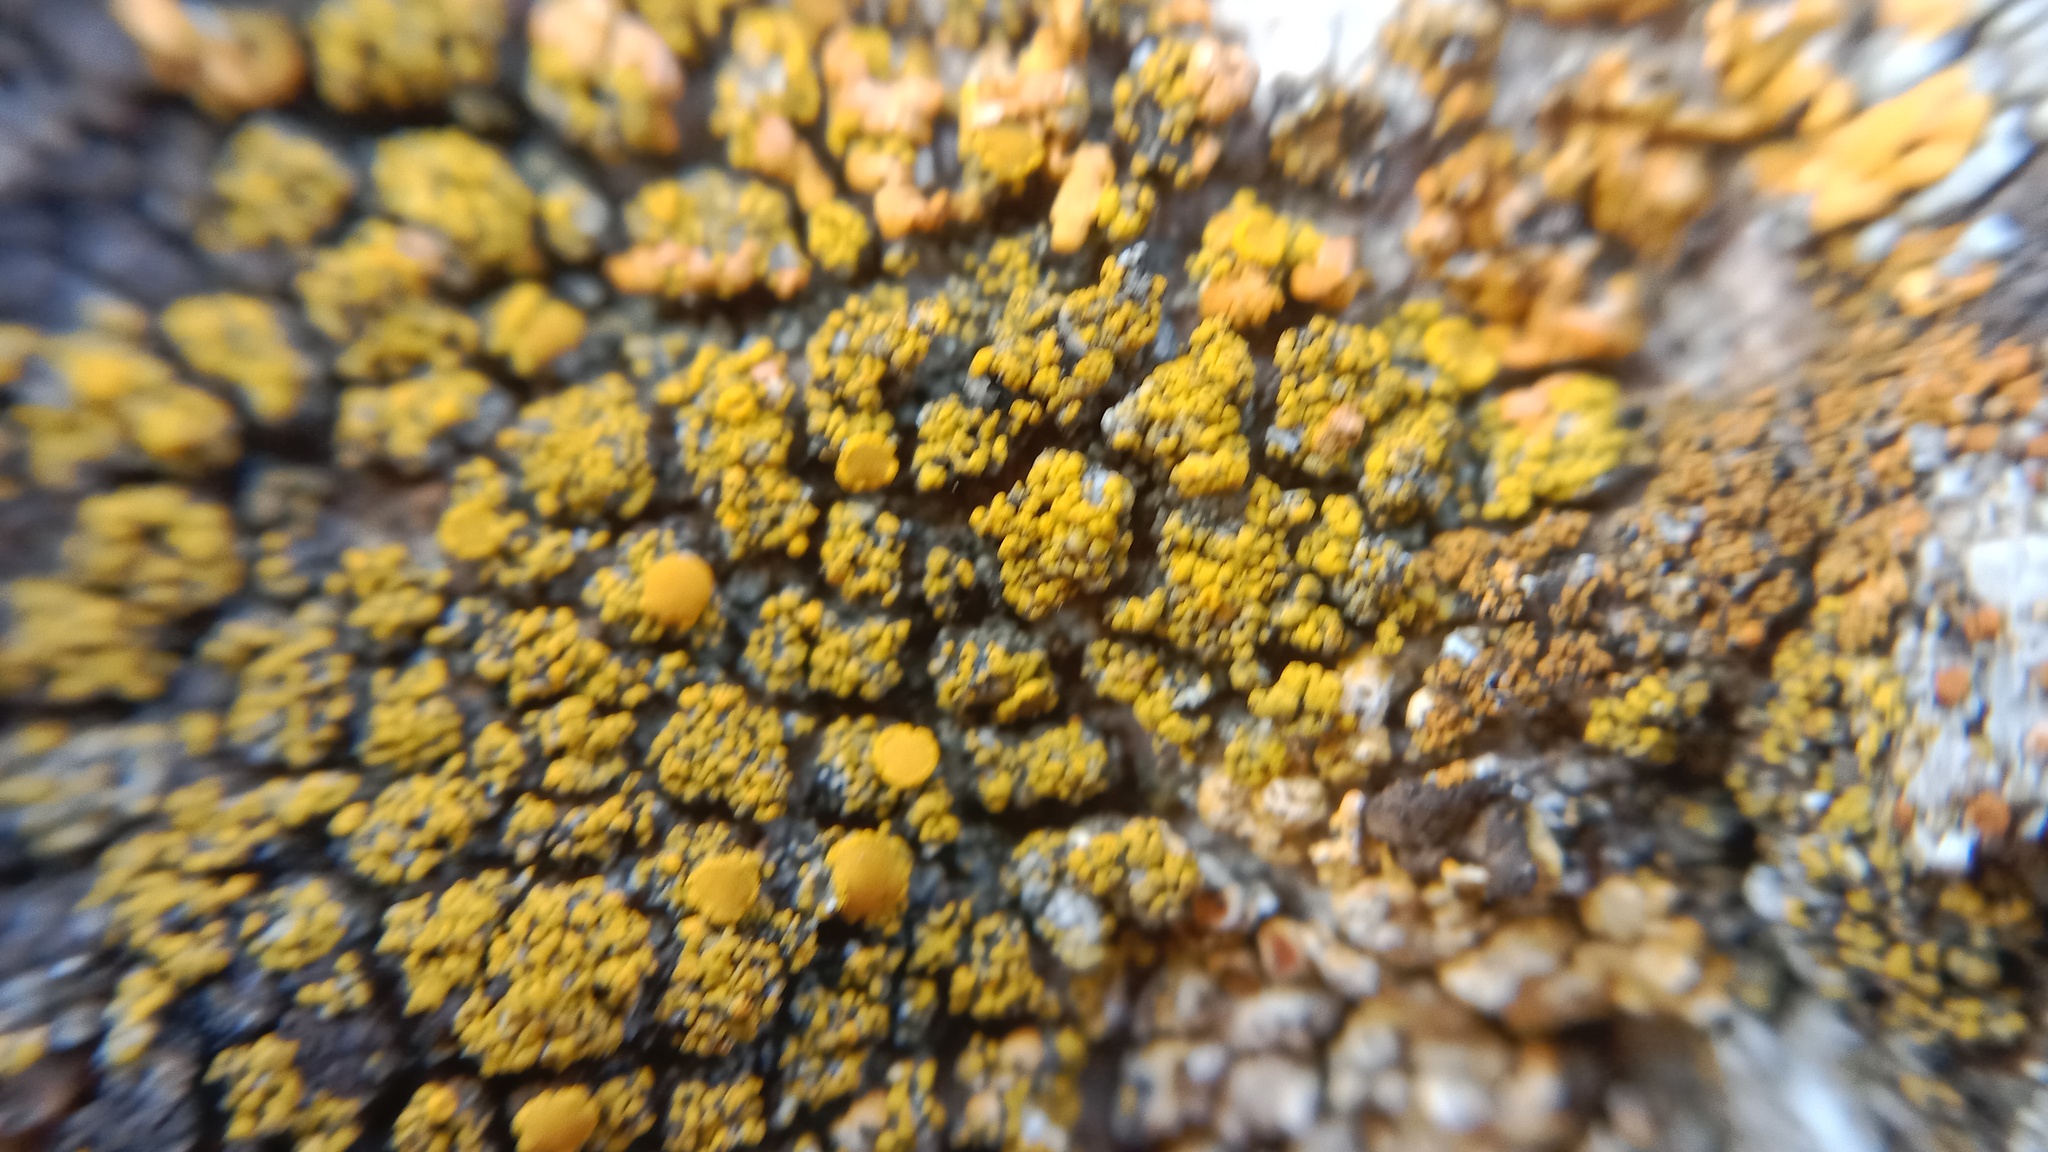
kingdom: Fungi
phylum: Ascomycota
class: Candelariomycetes
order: Candelariales
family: Candelariaceae
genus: Candelariella
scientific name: Candelariella rosulans
